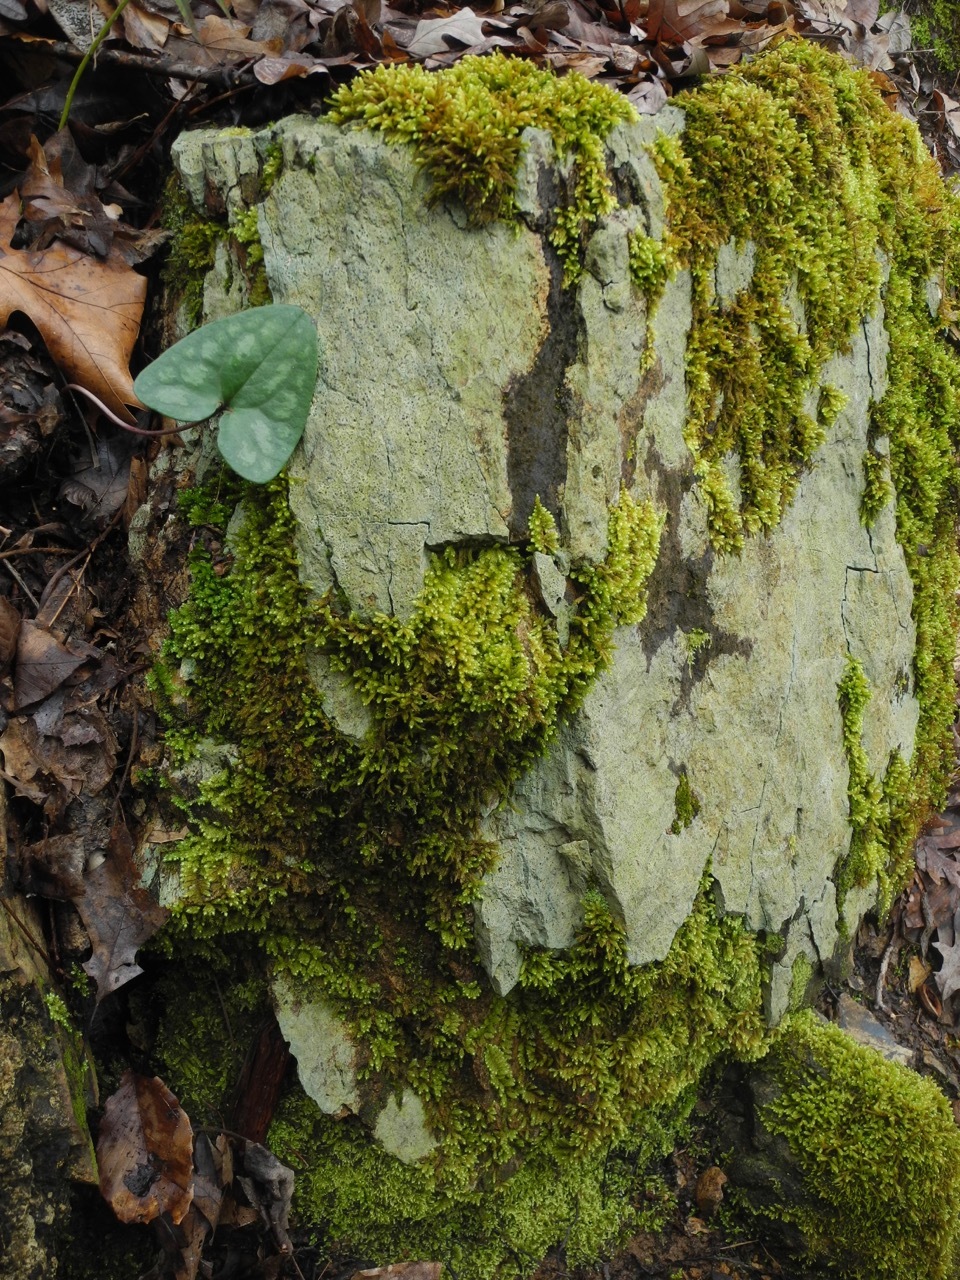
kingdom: Plantae
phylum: Tracheophyta
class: Magnoliopsida
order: Piperales
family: Aristolochiaceae
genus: Hexastylis
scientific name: Hexastylis arifolia
